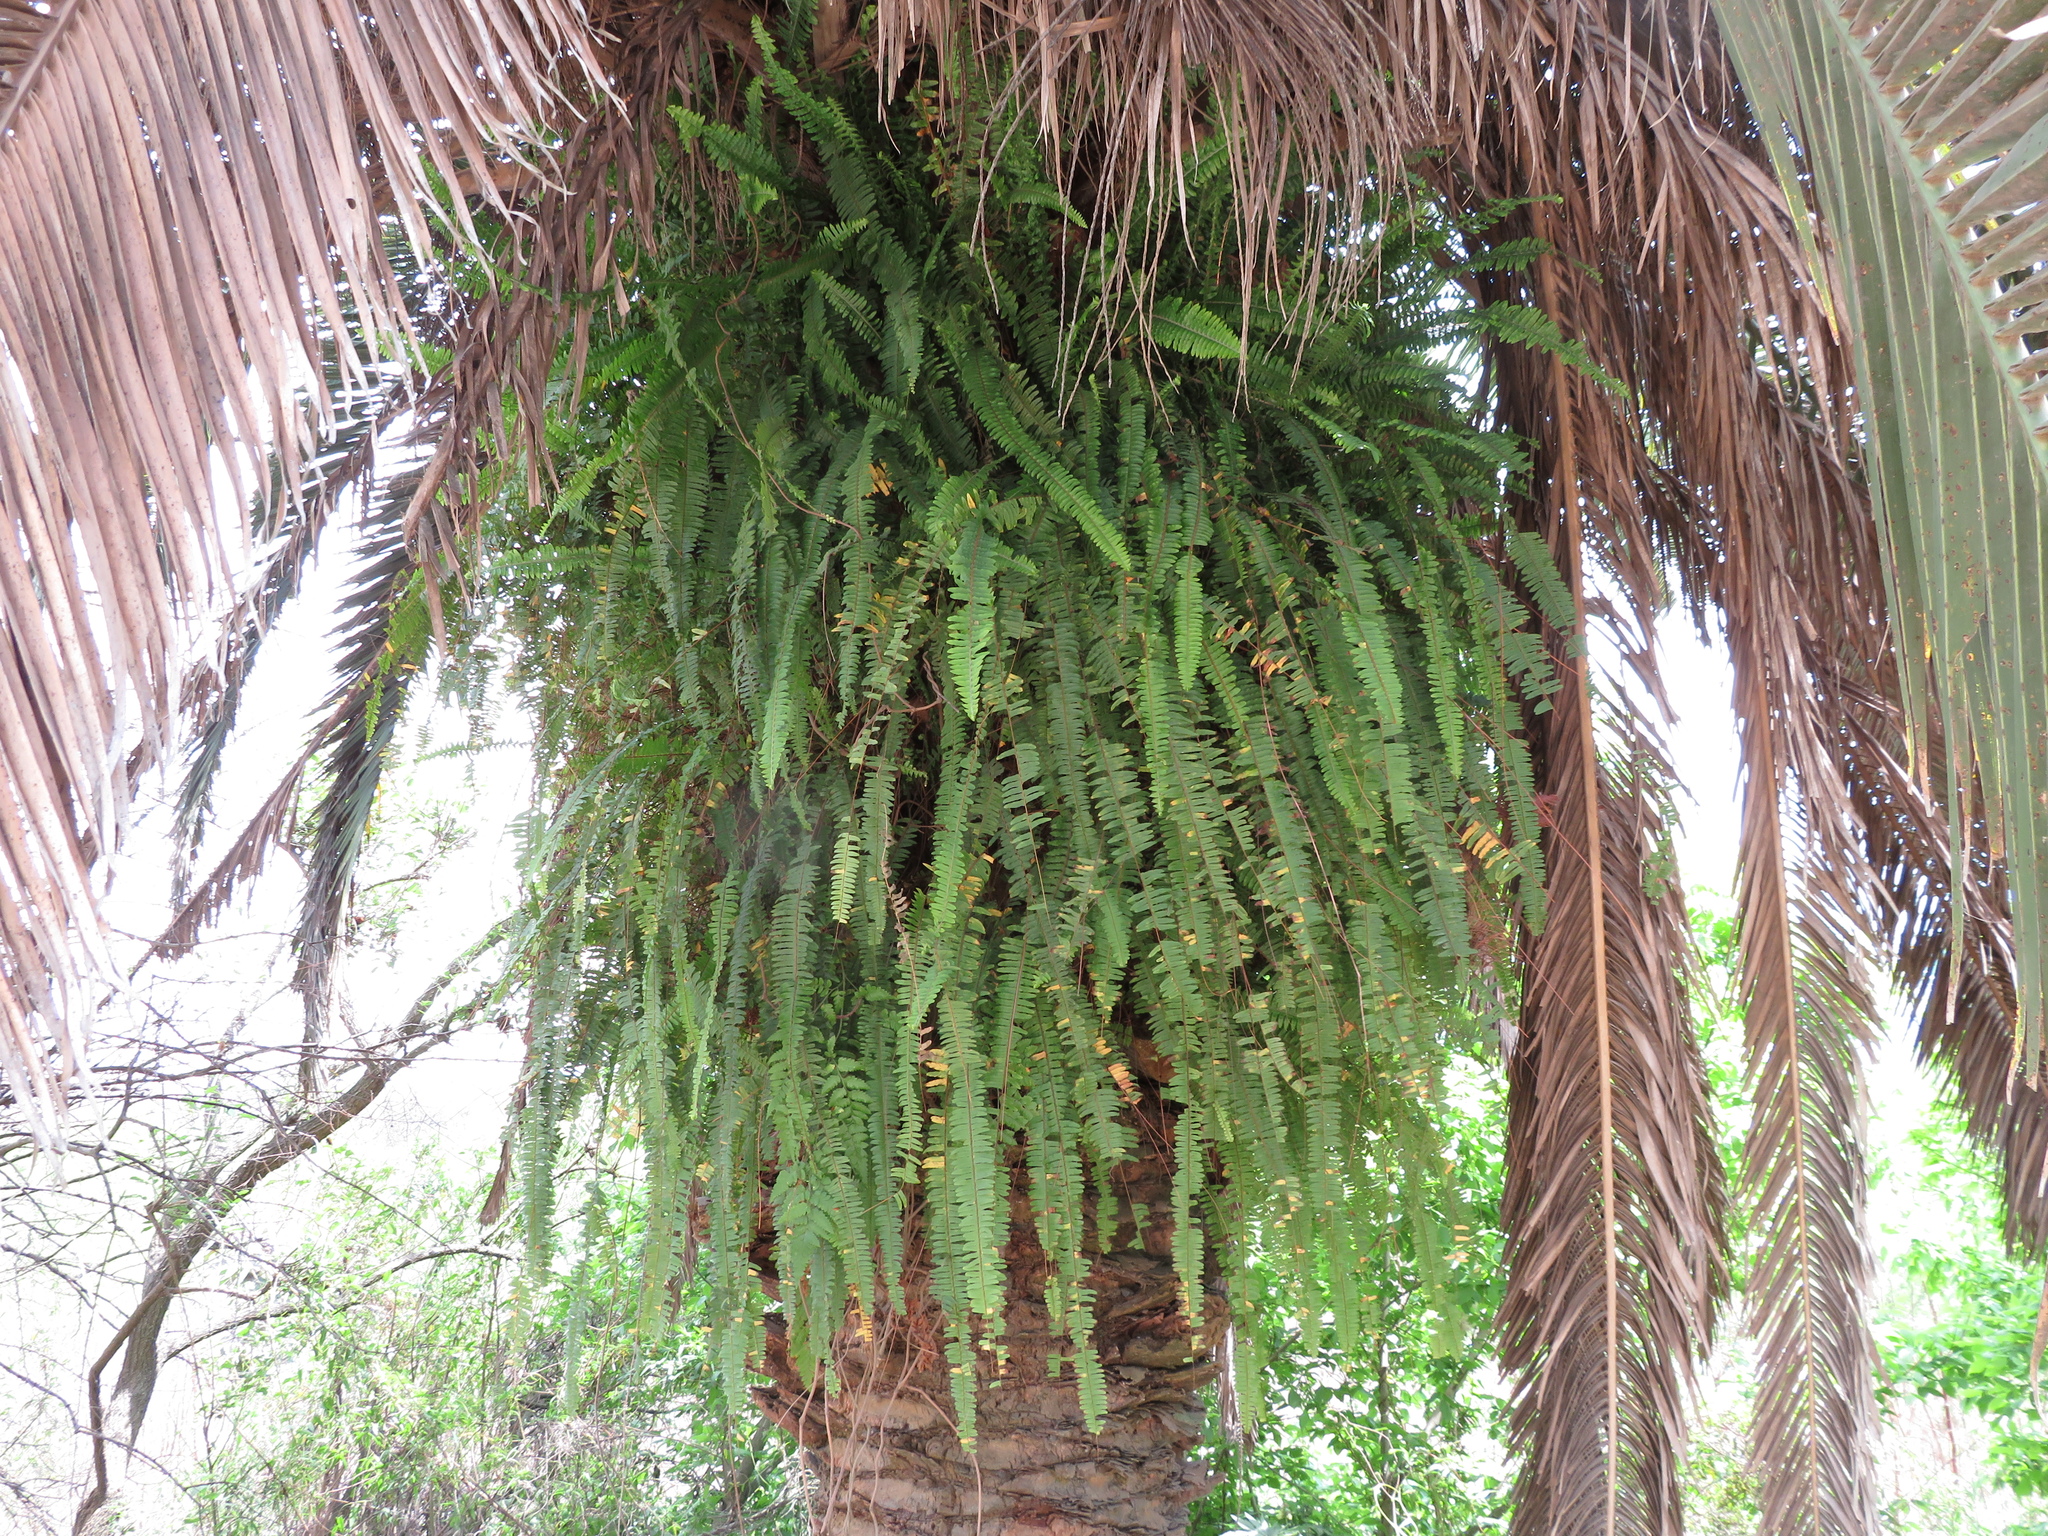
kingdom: Plantae
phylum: Tracheophyta
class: Polypodiopsida
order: Polypodiales
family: Nephrolepidaceae
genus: Nephrolepis
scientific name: Nephrolepis cordifolia
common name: Narrow swordfern
